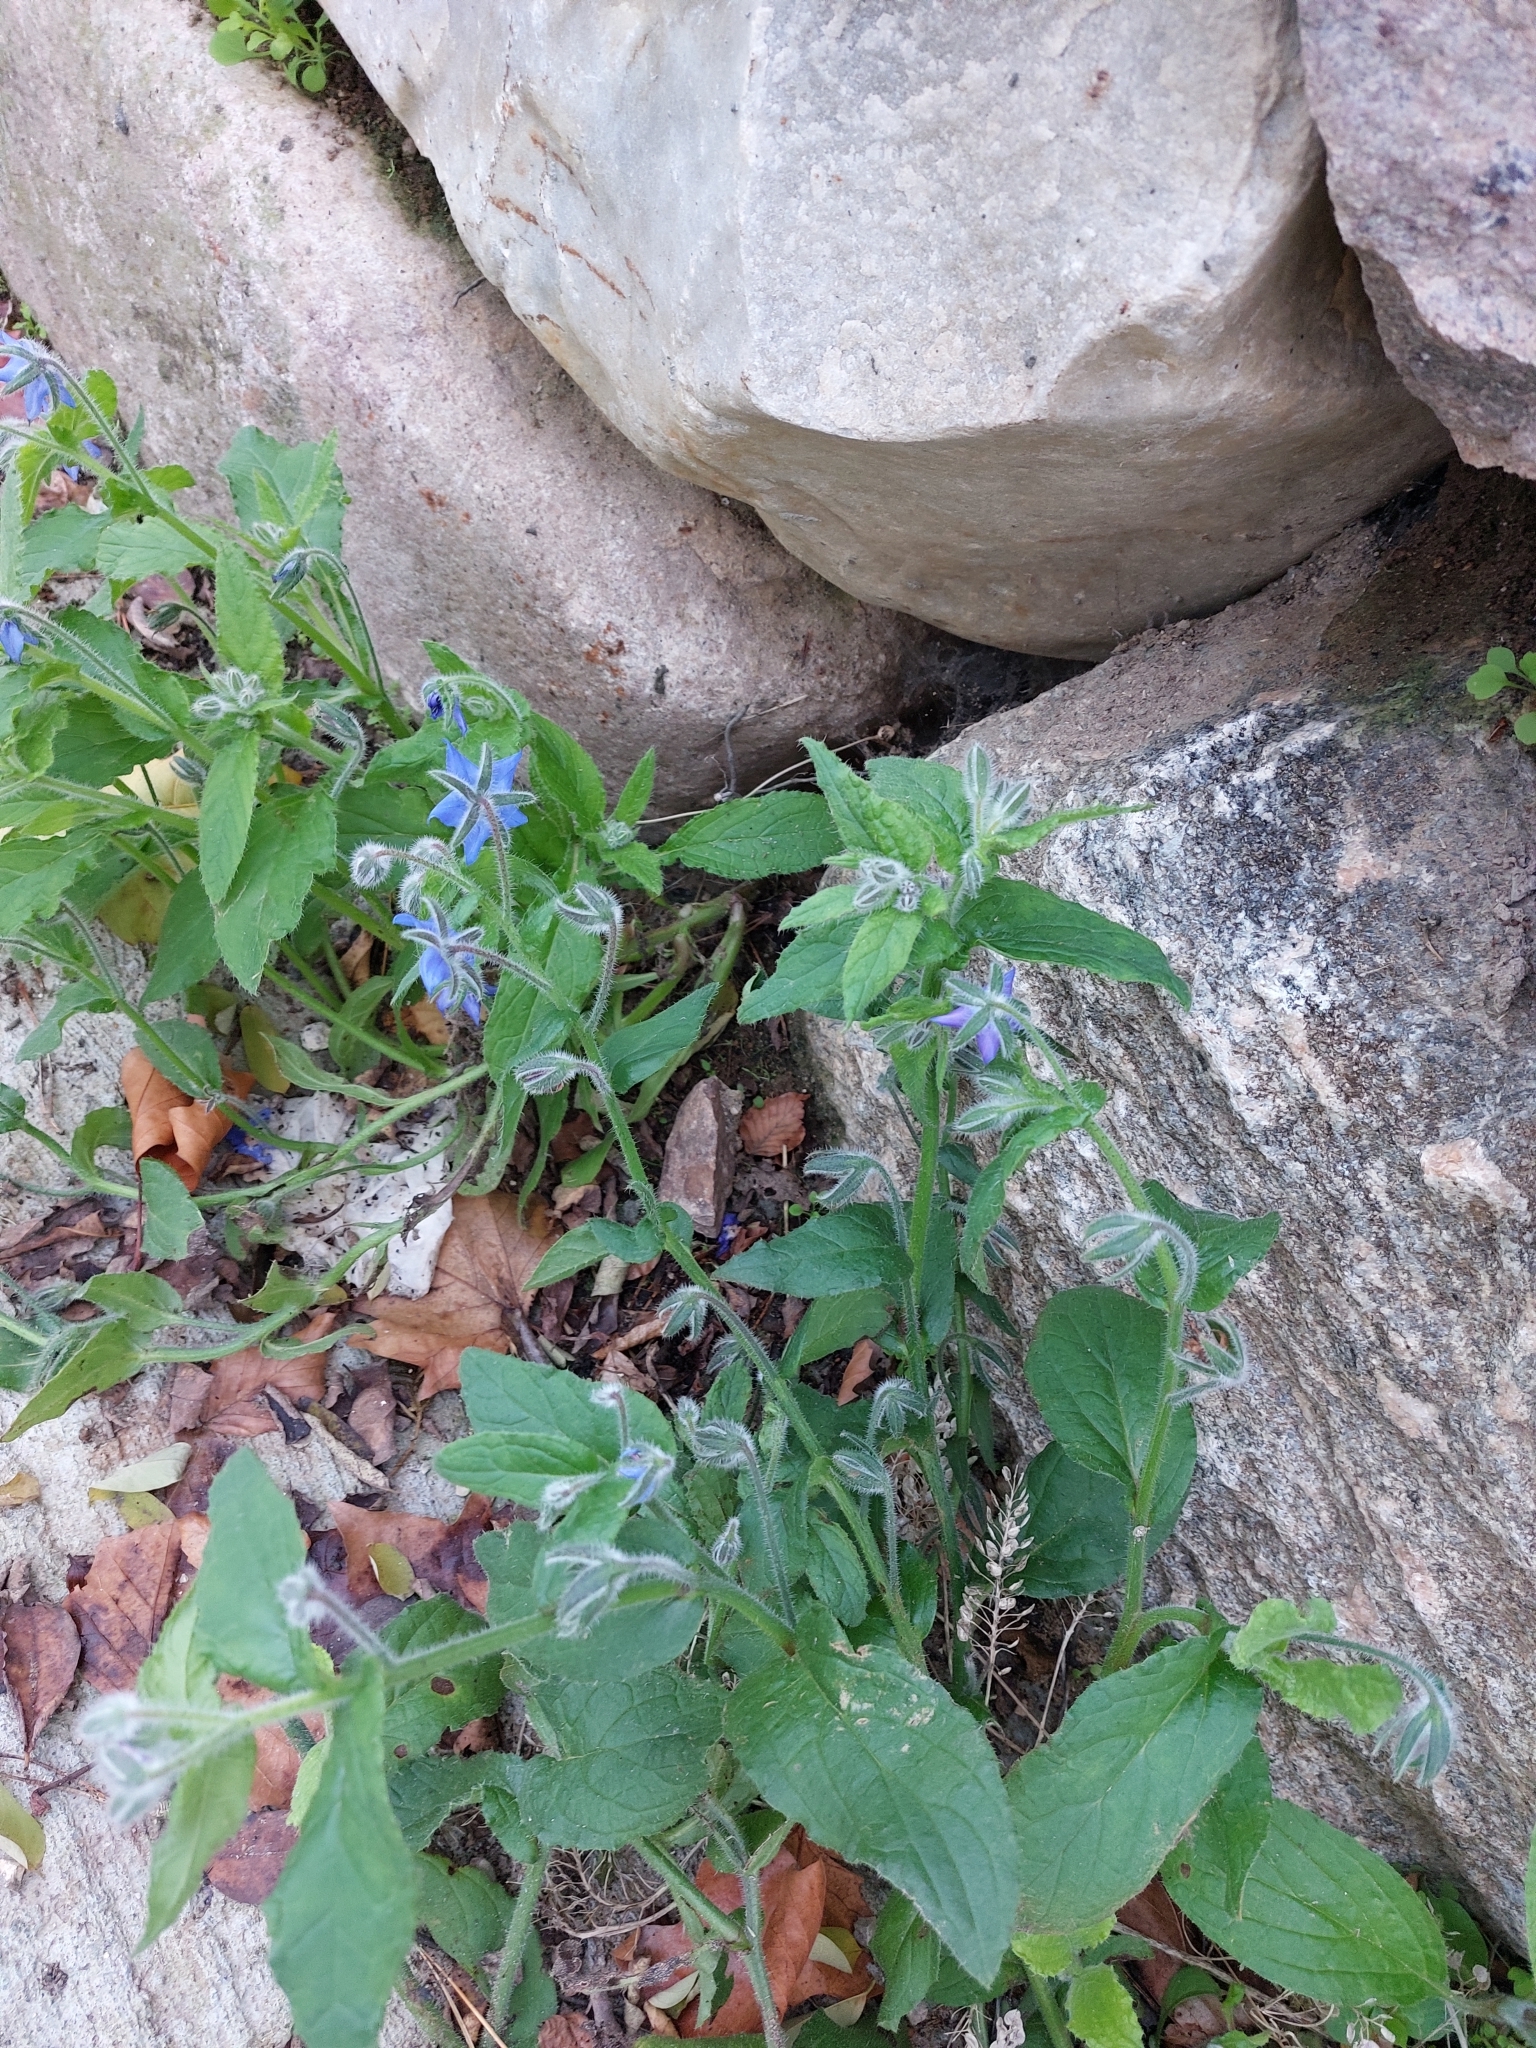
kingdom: Plantae
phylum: Tracheophyta
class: Magnoliopsida
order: Boraginales
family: Boraginaceae
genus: Borago
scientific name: Borago officinalis
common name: Borage
